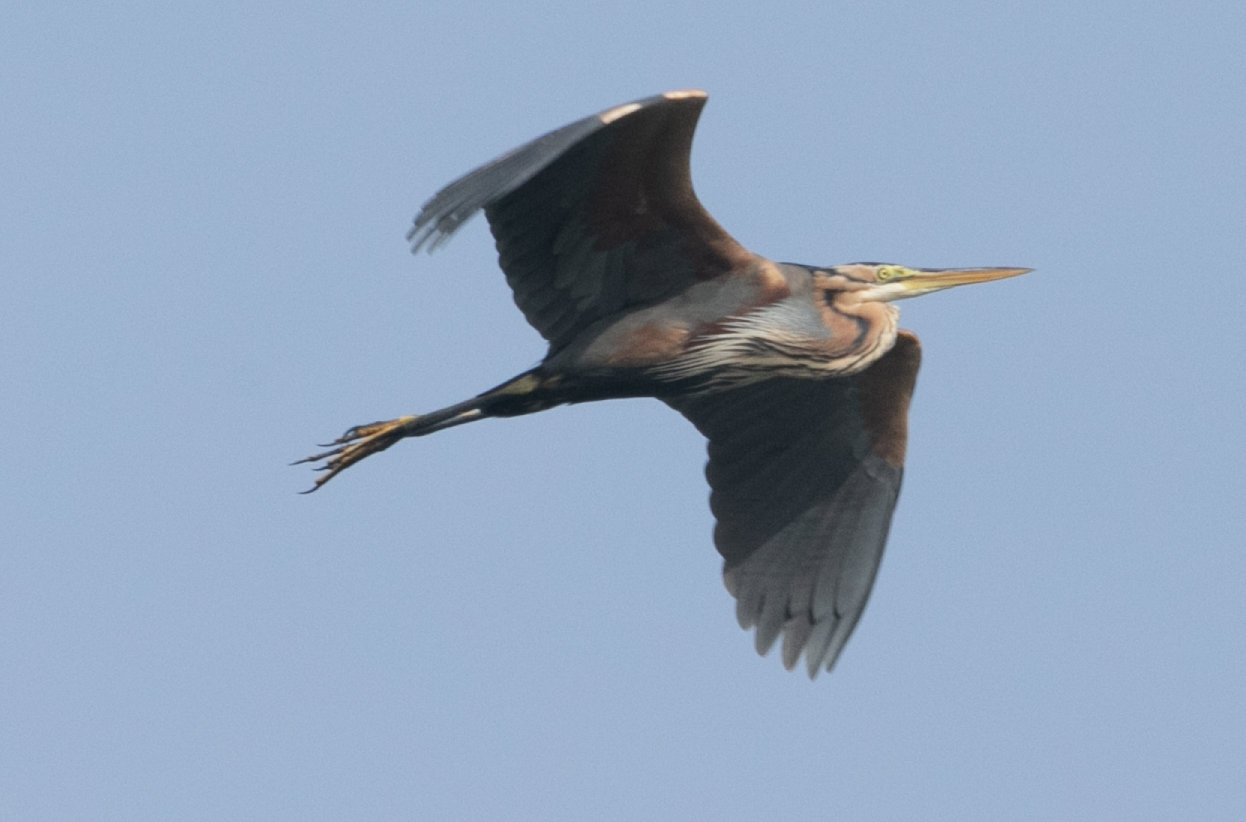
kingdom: Animalia
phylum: Chordata
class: Aves
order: Pelecaniformes
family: Ardeidae
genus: Ardea
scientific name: Ardea purpurea
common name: Purple heron
